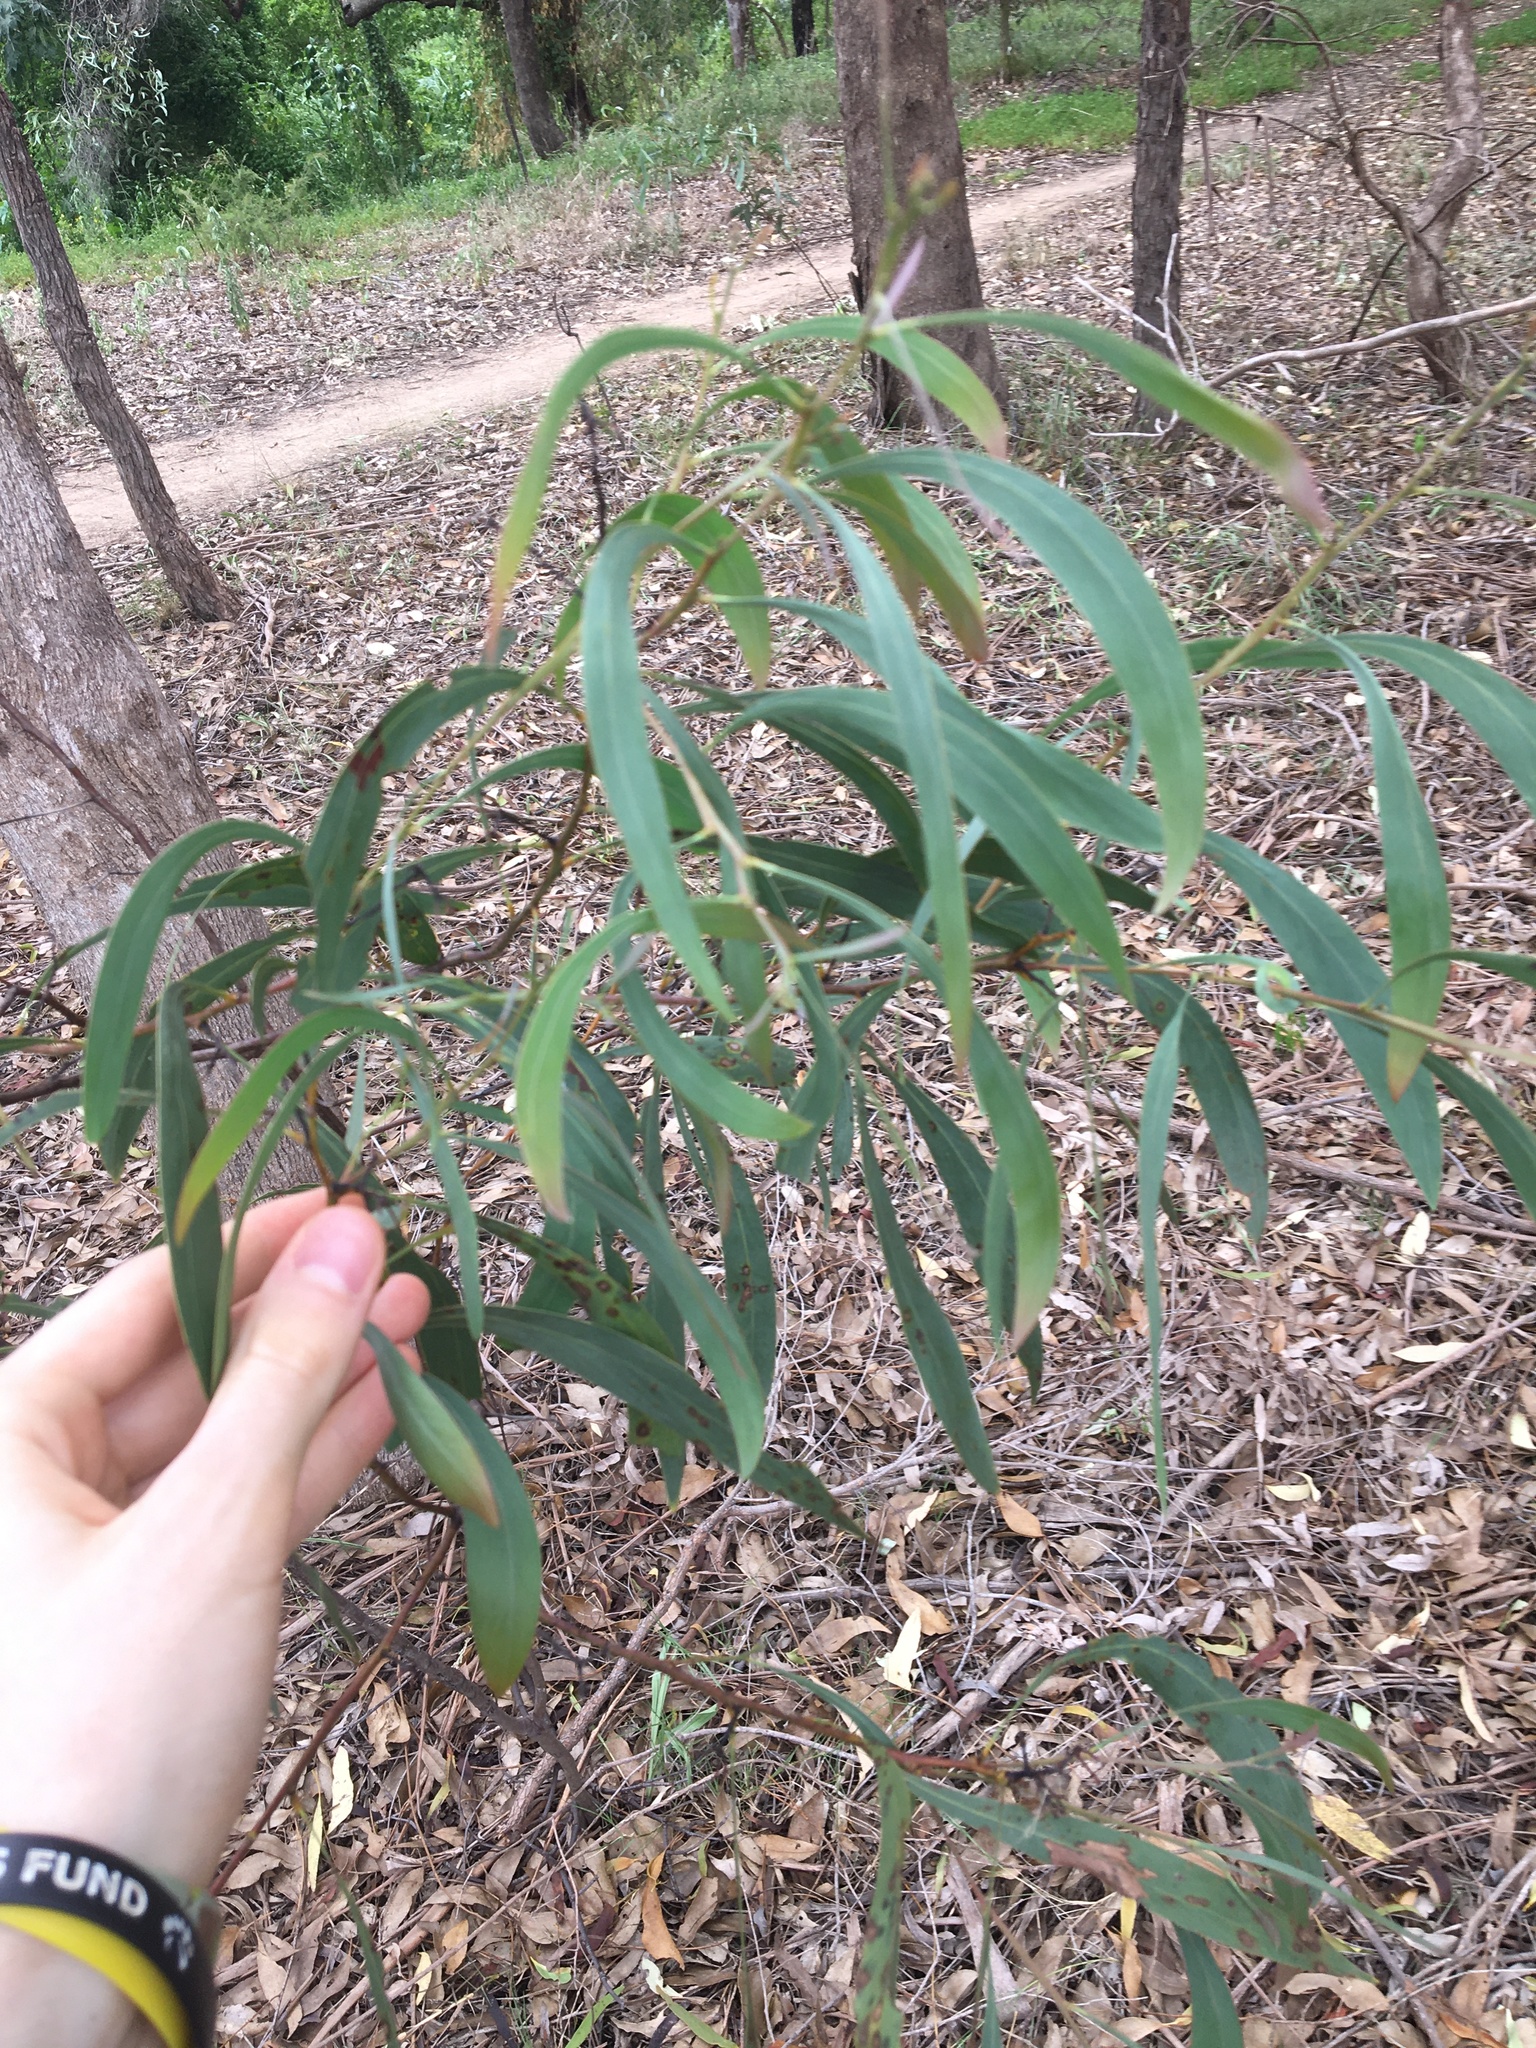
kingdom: Plantae
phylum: Tracheophyta
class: Magnoliopsida
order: Fabales
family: Fabaceae
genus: Acacia
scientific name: Acacia falcata
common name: Burra acacia
